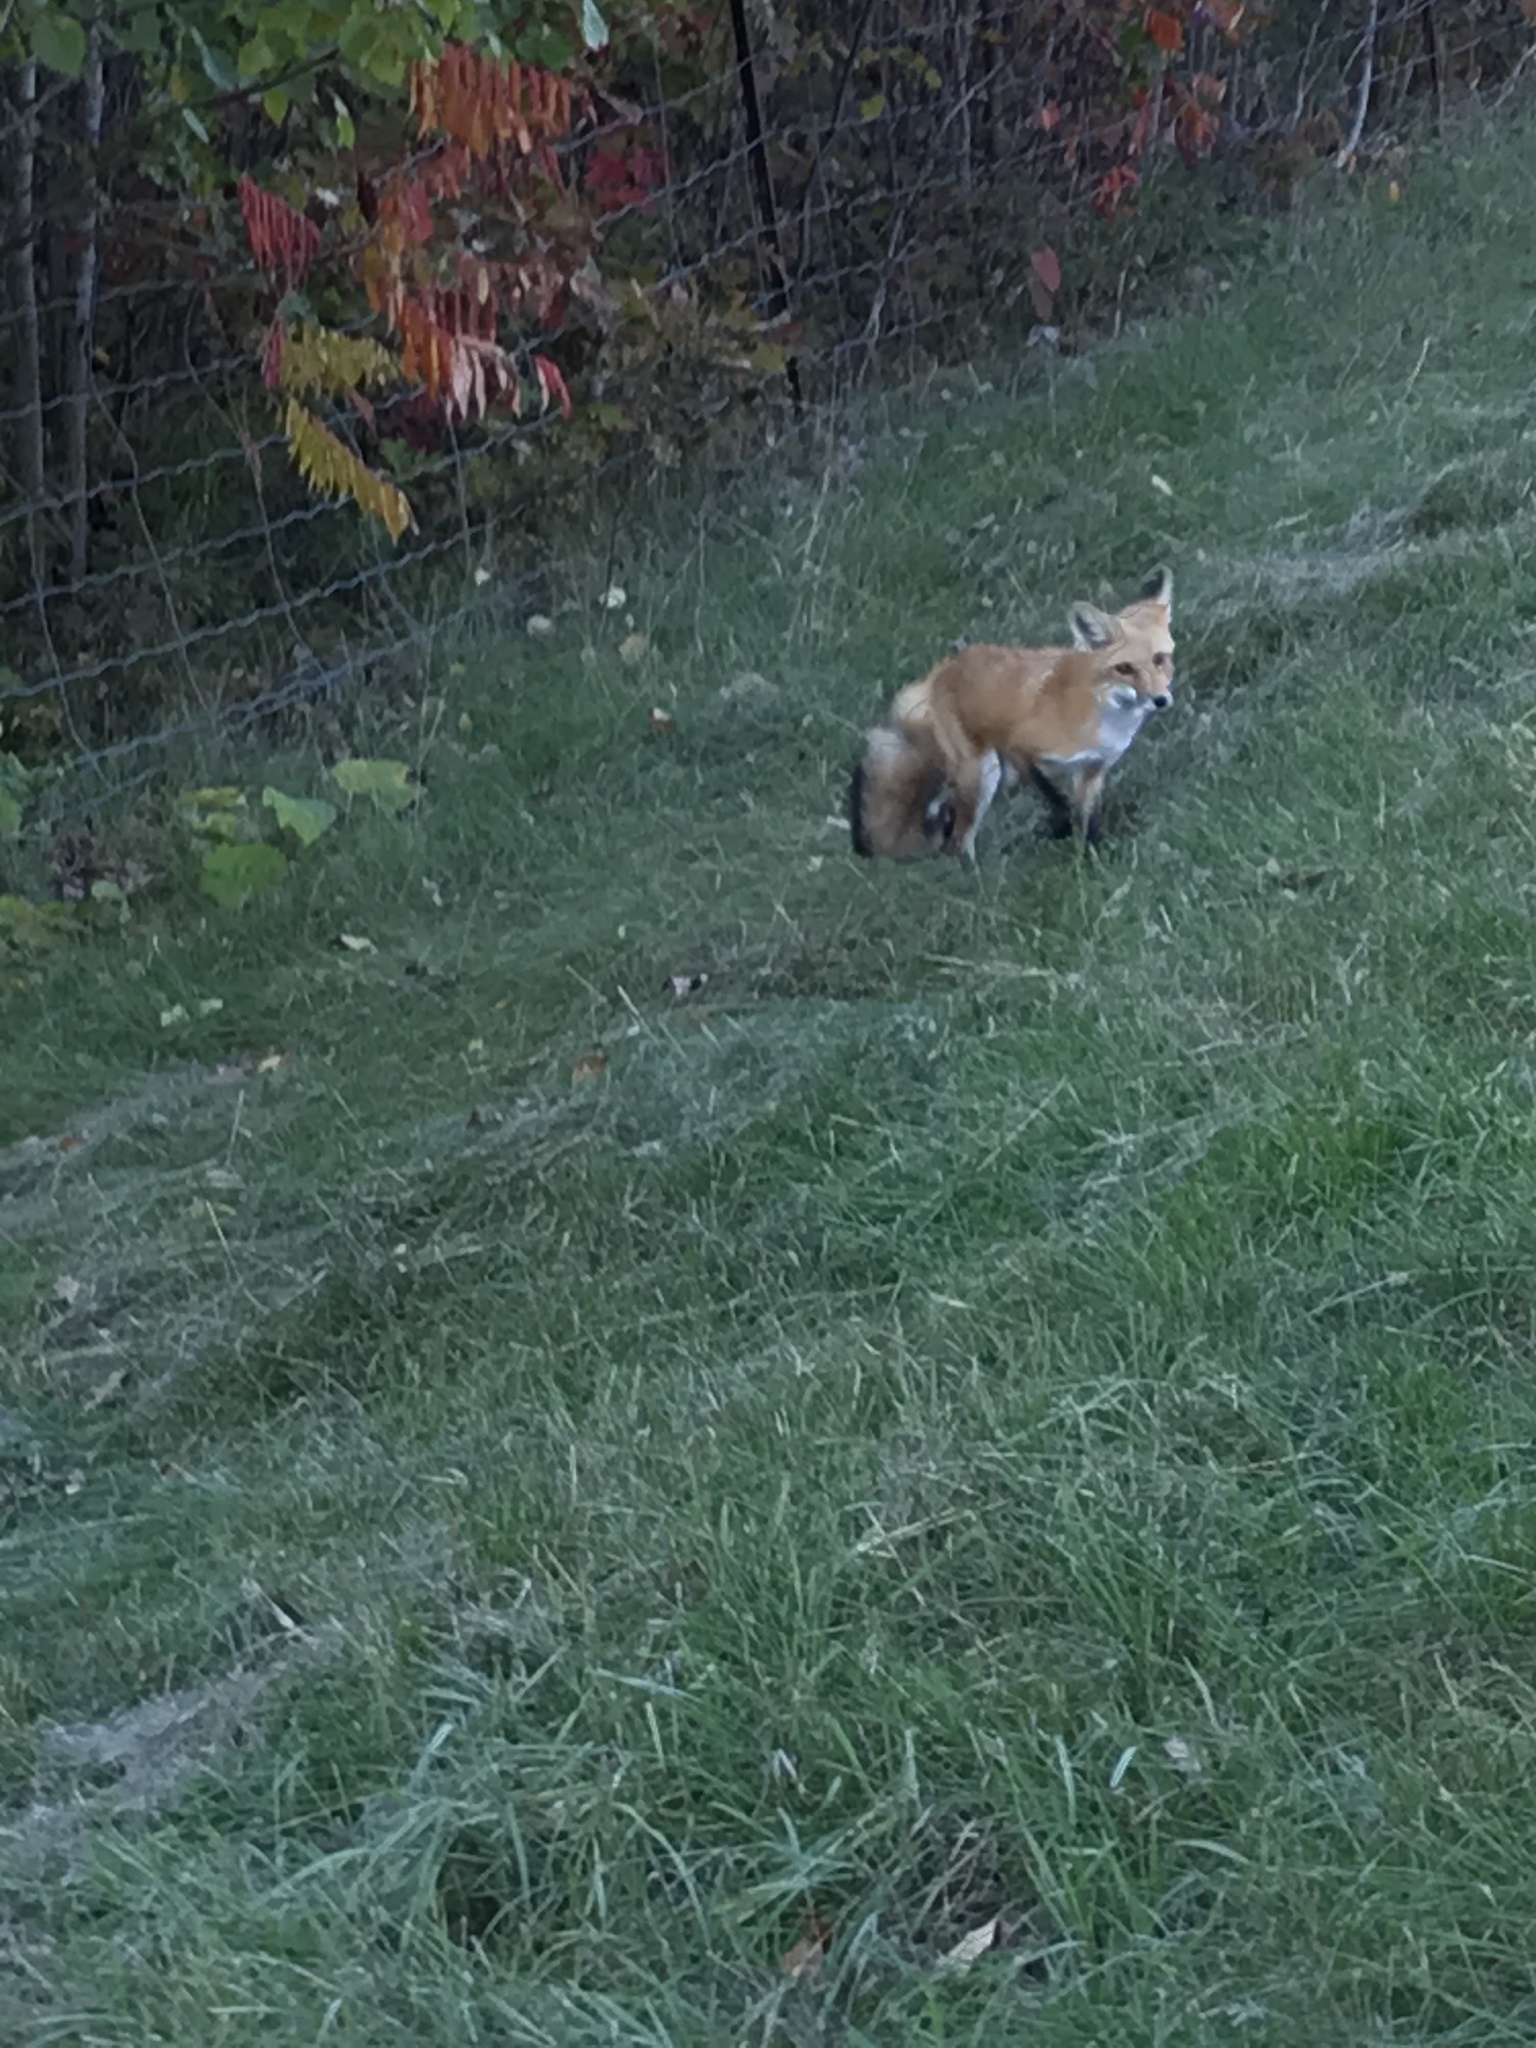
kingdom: Animalia
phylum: Chordata
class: Mammalia
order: Carnivora
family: Canidae
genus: Vulpes
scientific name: Vulpes vulpes
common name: Red fox
